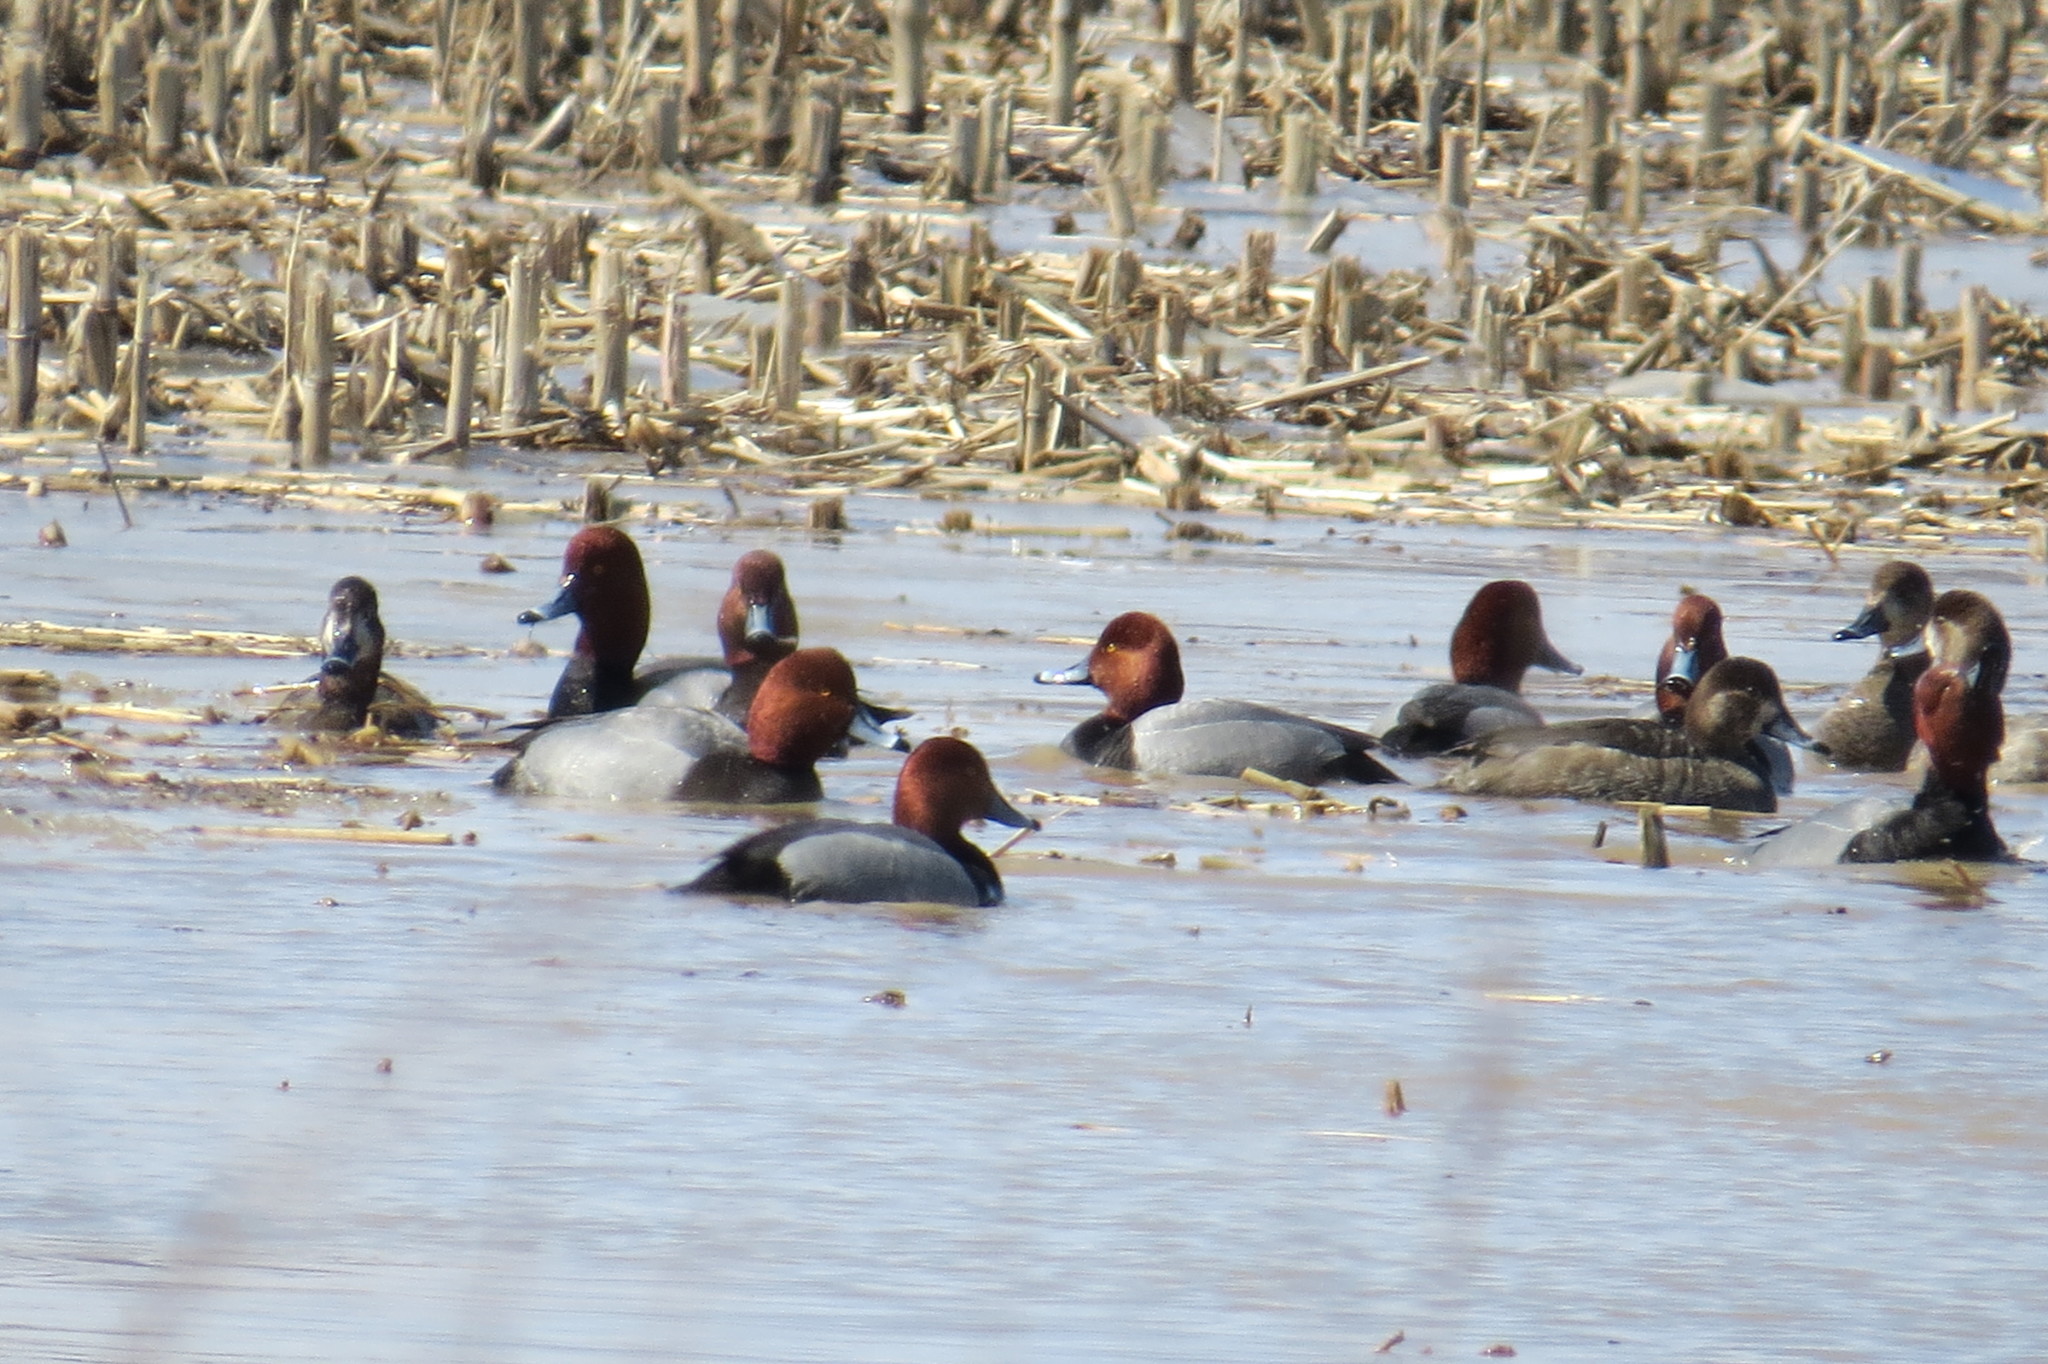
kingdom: Animalia
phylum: Chordata
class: Aves
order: Anseriformes
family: Anatidae
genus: Aythya
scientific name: Aythya americana
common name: Redhead
